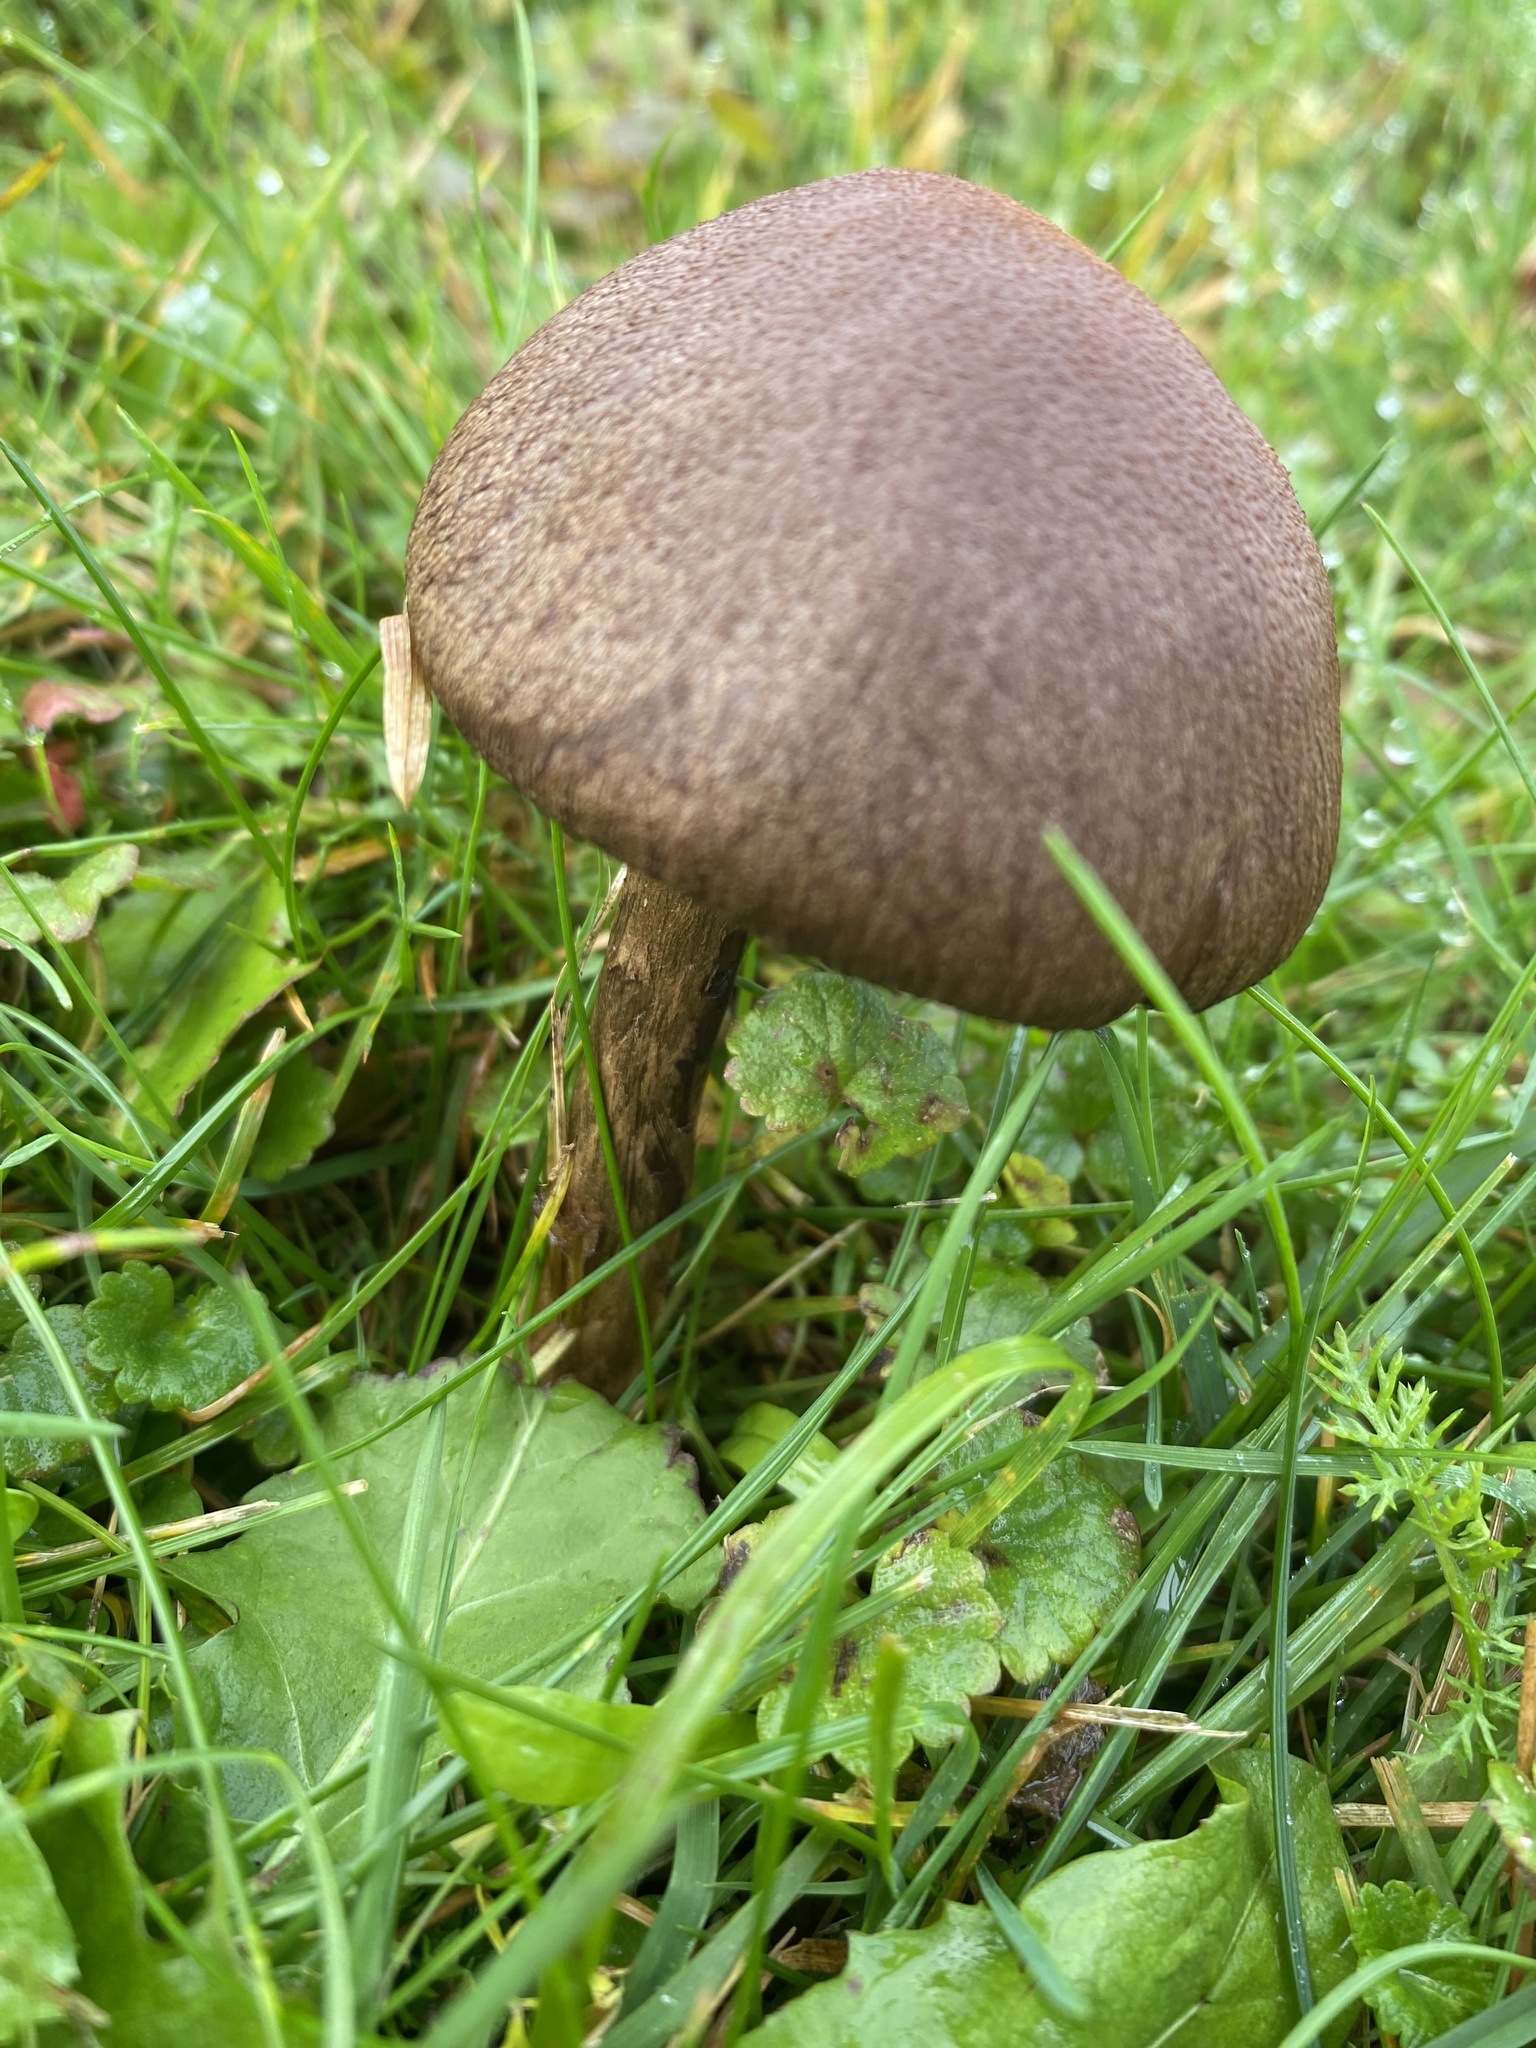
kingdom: Fungi
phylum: Basidiomycota
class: Agaricomycetes
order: Agaricales
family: Psathyrellaceae
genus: Lacrymaria
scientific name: Lacrymaria lacrymabunda
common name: Weeping widow
